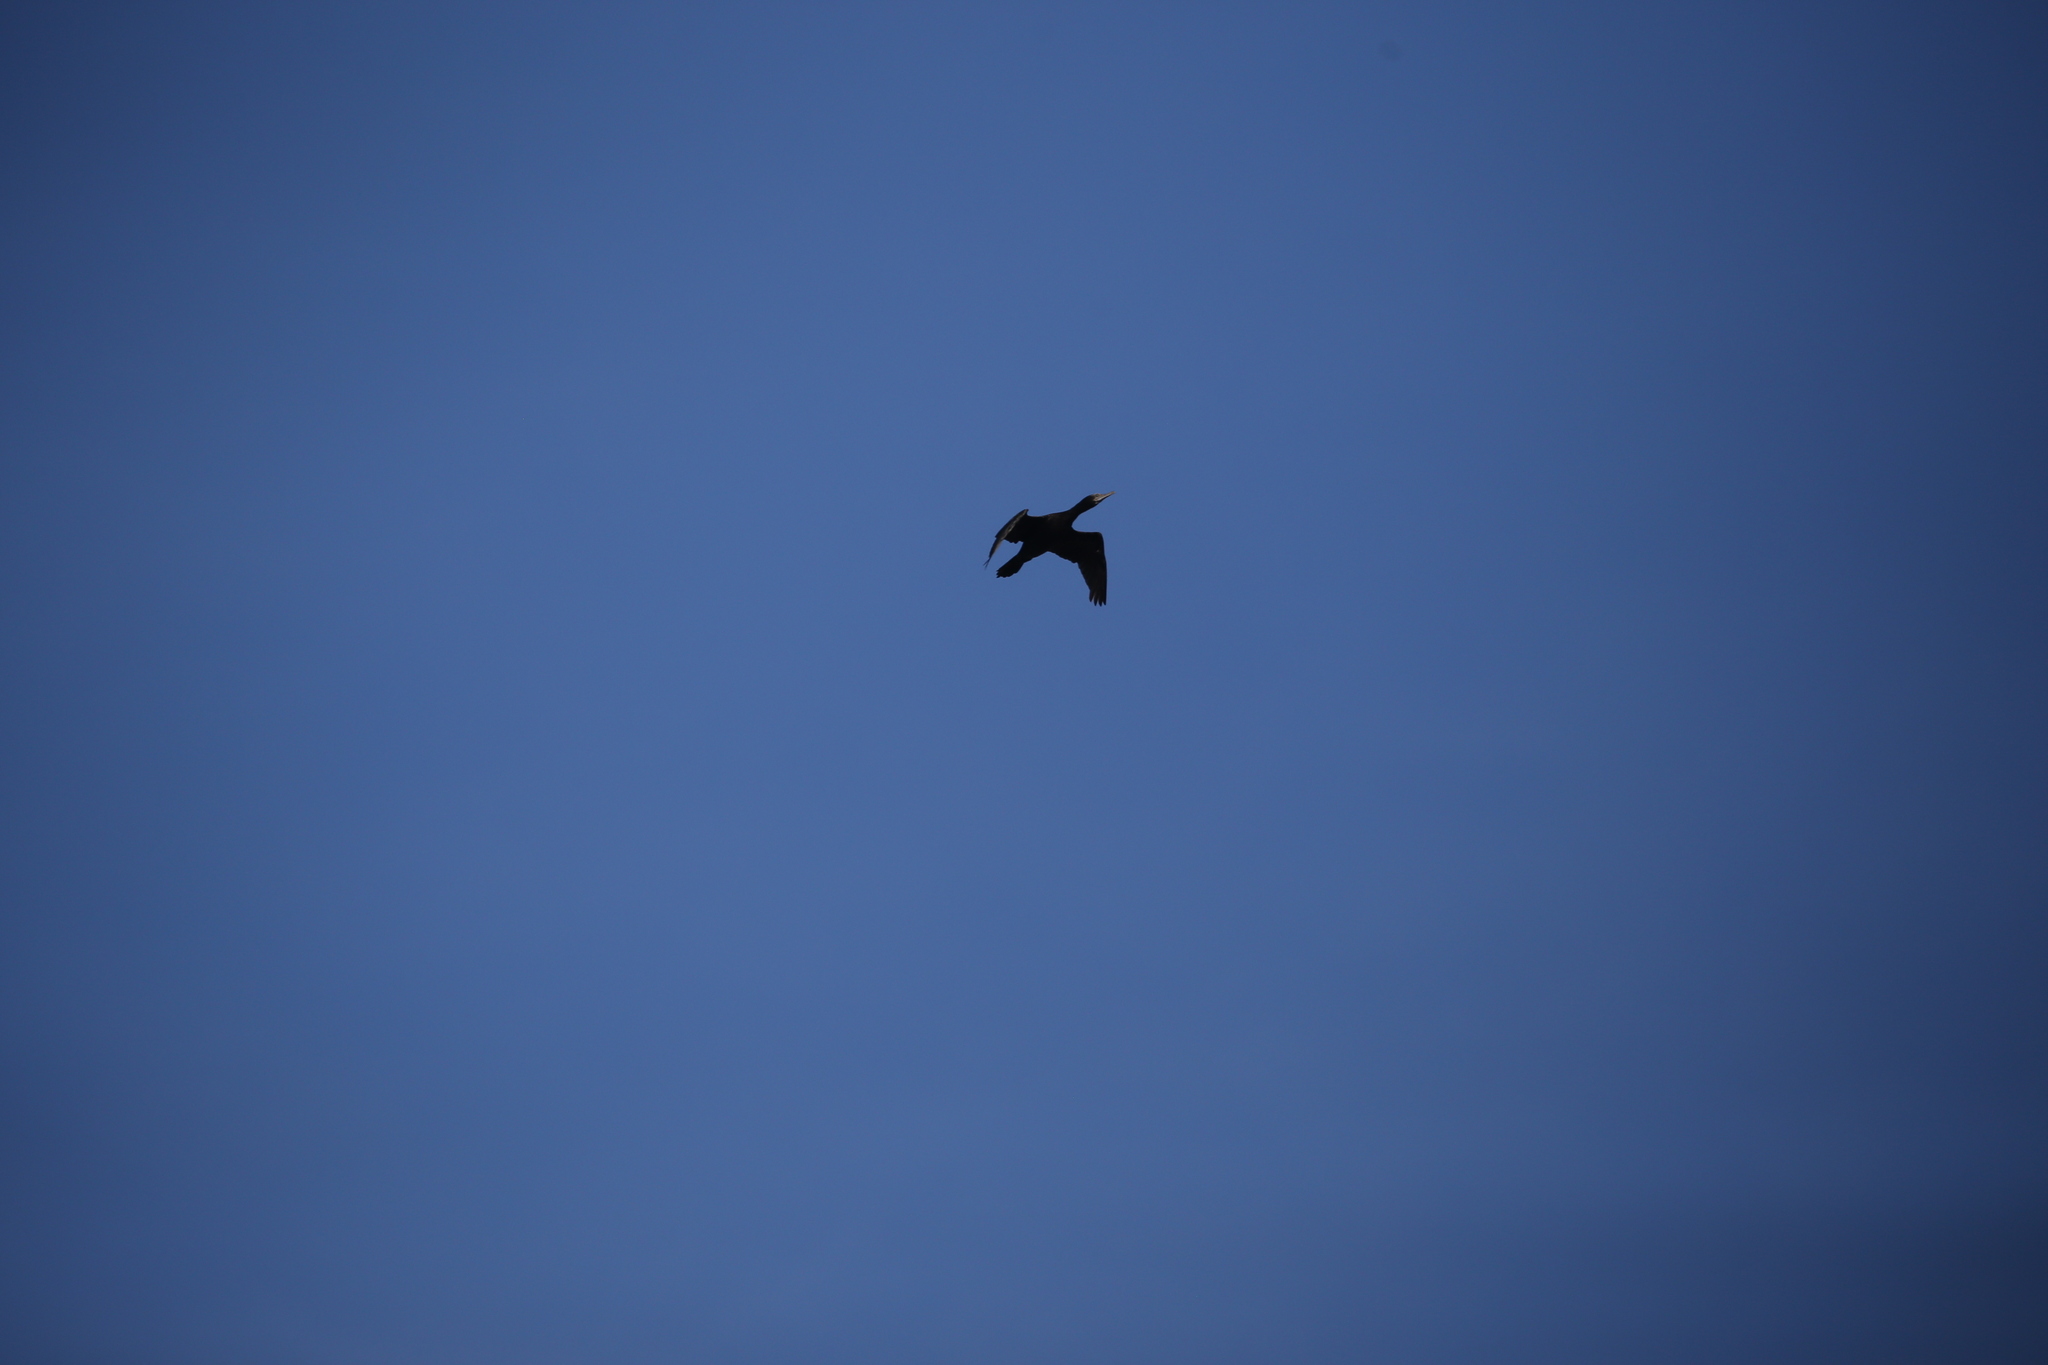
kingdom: Animalia
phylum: Chordata
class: Aves
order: Suliformes
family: Phalacrocoracidae
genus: Phalacrocorax
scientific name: Phalacrocorax sulcirostris
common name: Little black cormorant
